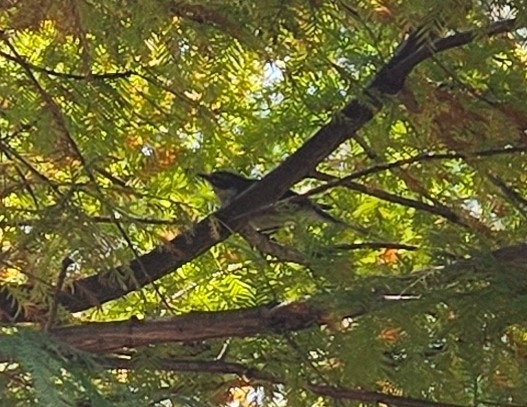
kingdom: Animalia
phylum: Chordata
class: Aves
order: Passeriformes
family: Parulidae
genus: Setophaga
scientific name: Setophaga coronata
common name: Myrtle warbler
